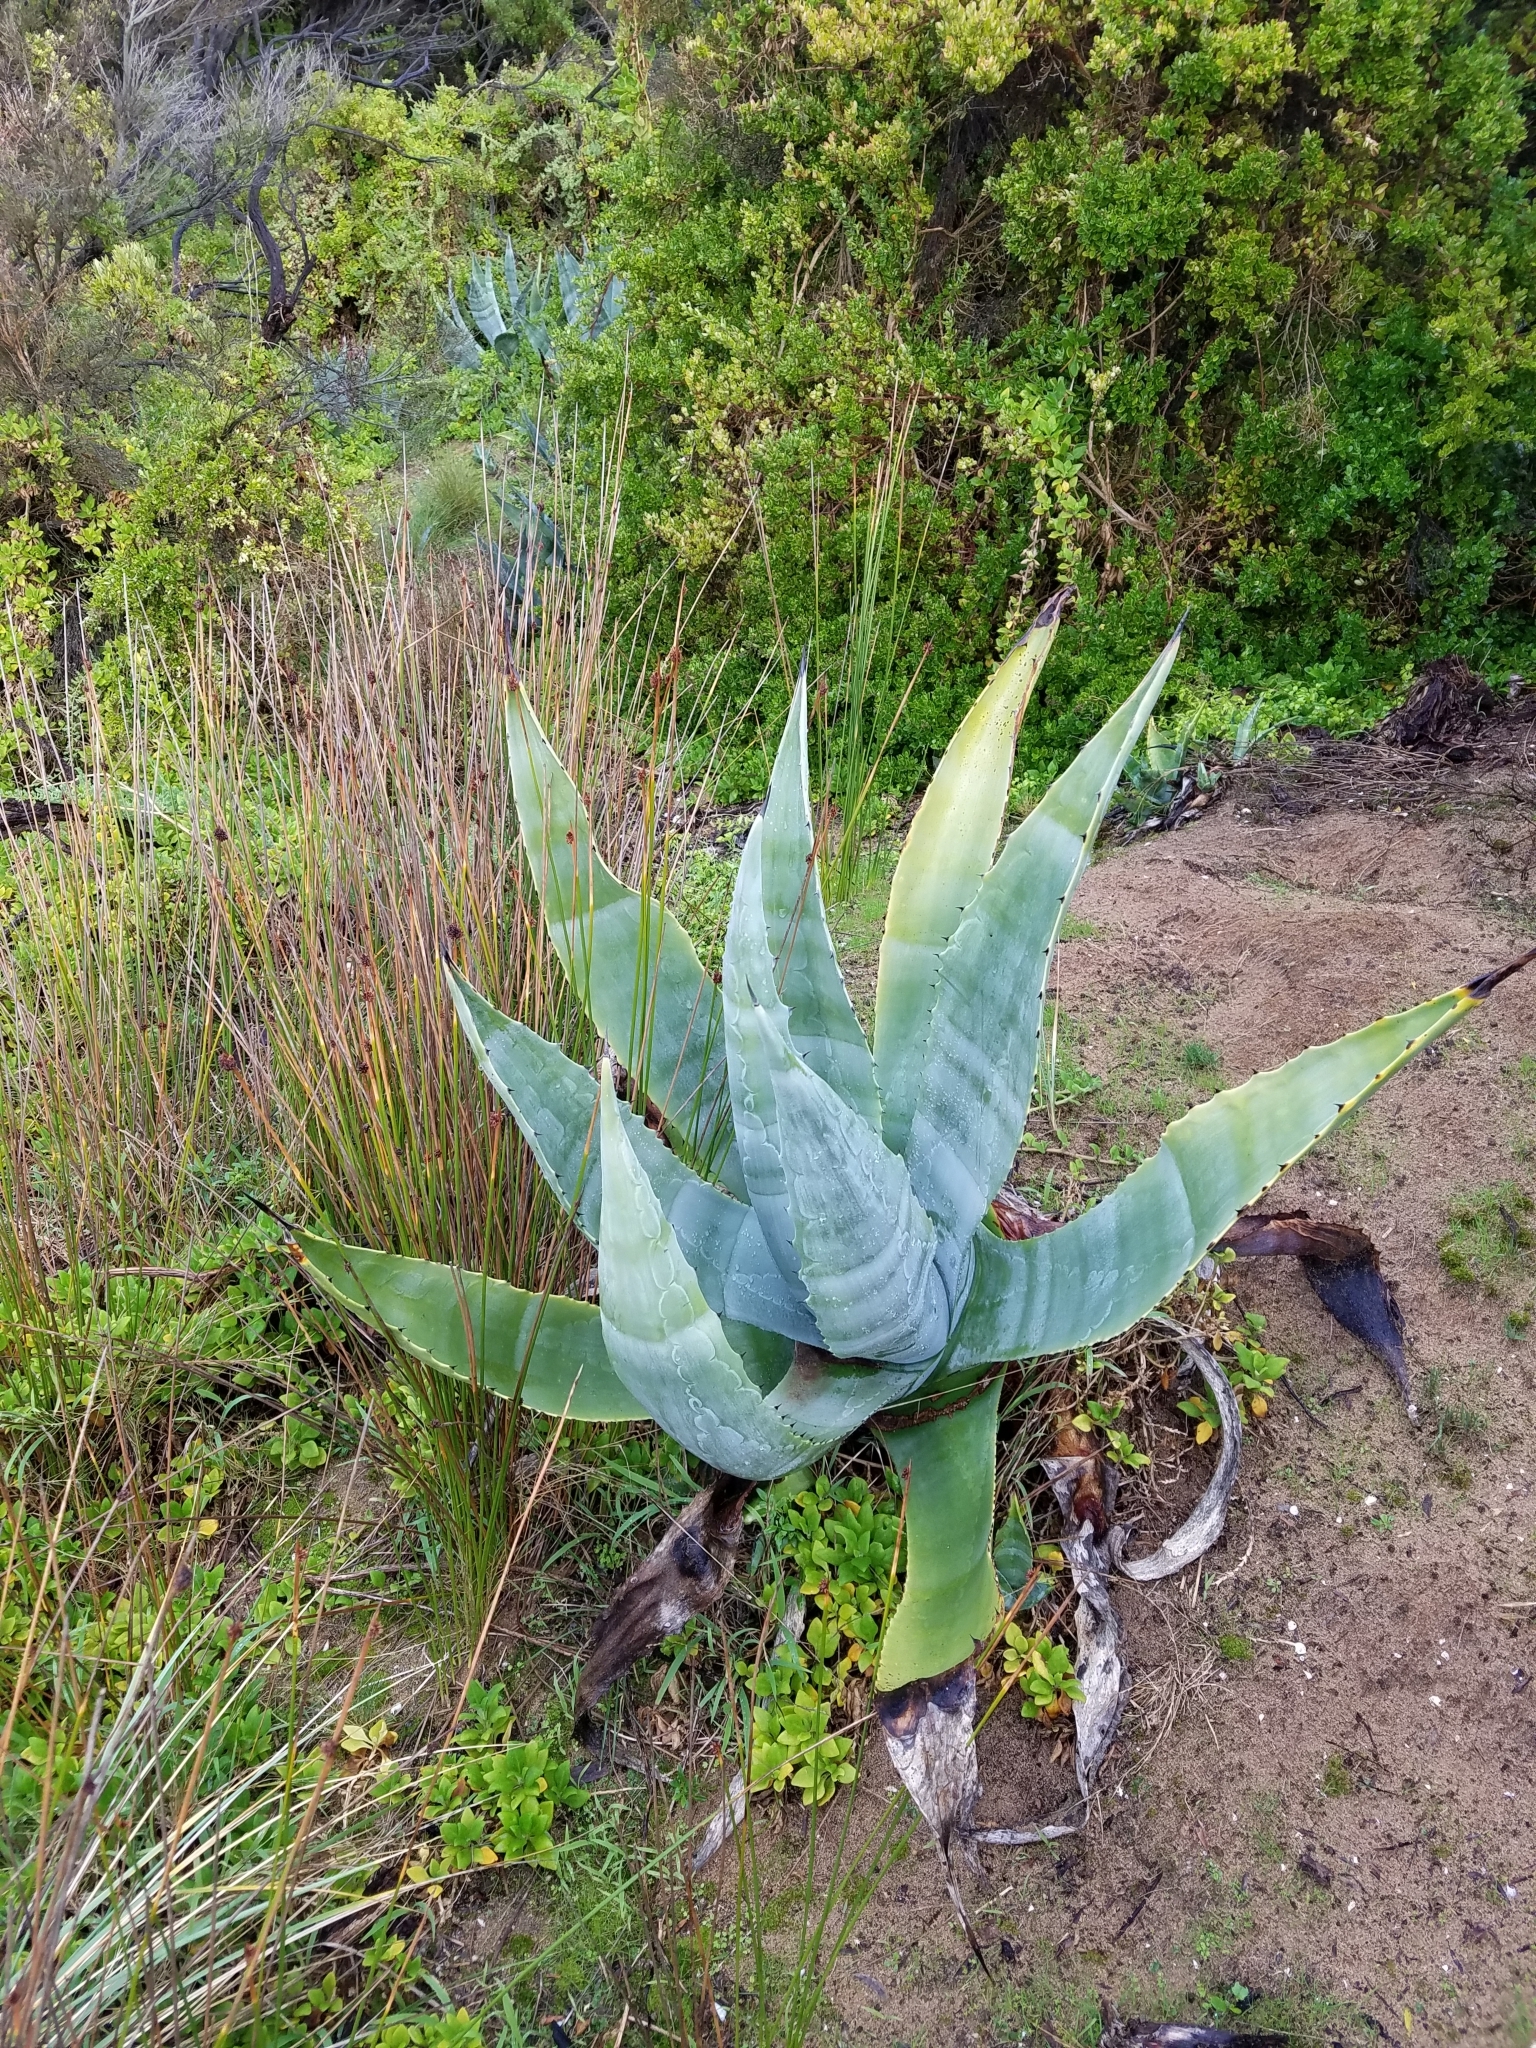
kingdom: Plantae
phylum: Tracheophyta
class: Liliopsida
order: Asparagales
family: Asparagaceae
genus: Agave
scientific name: Agave americana
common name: Centuryplant
